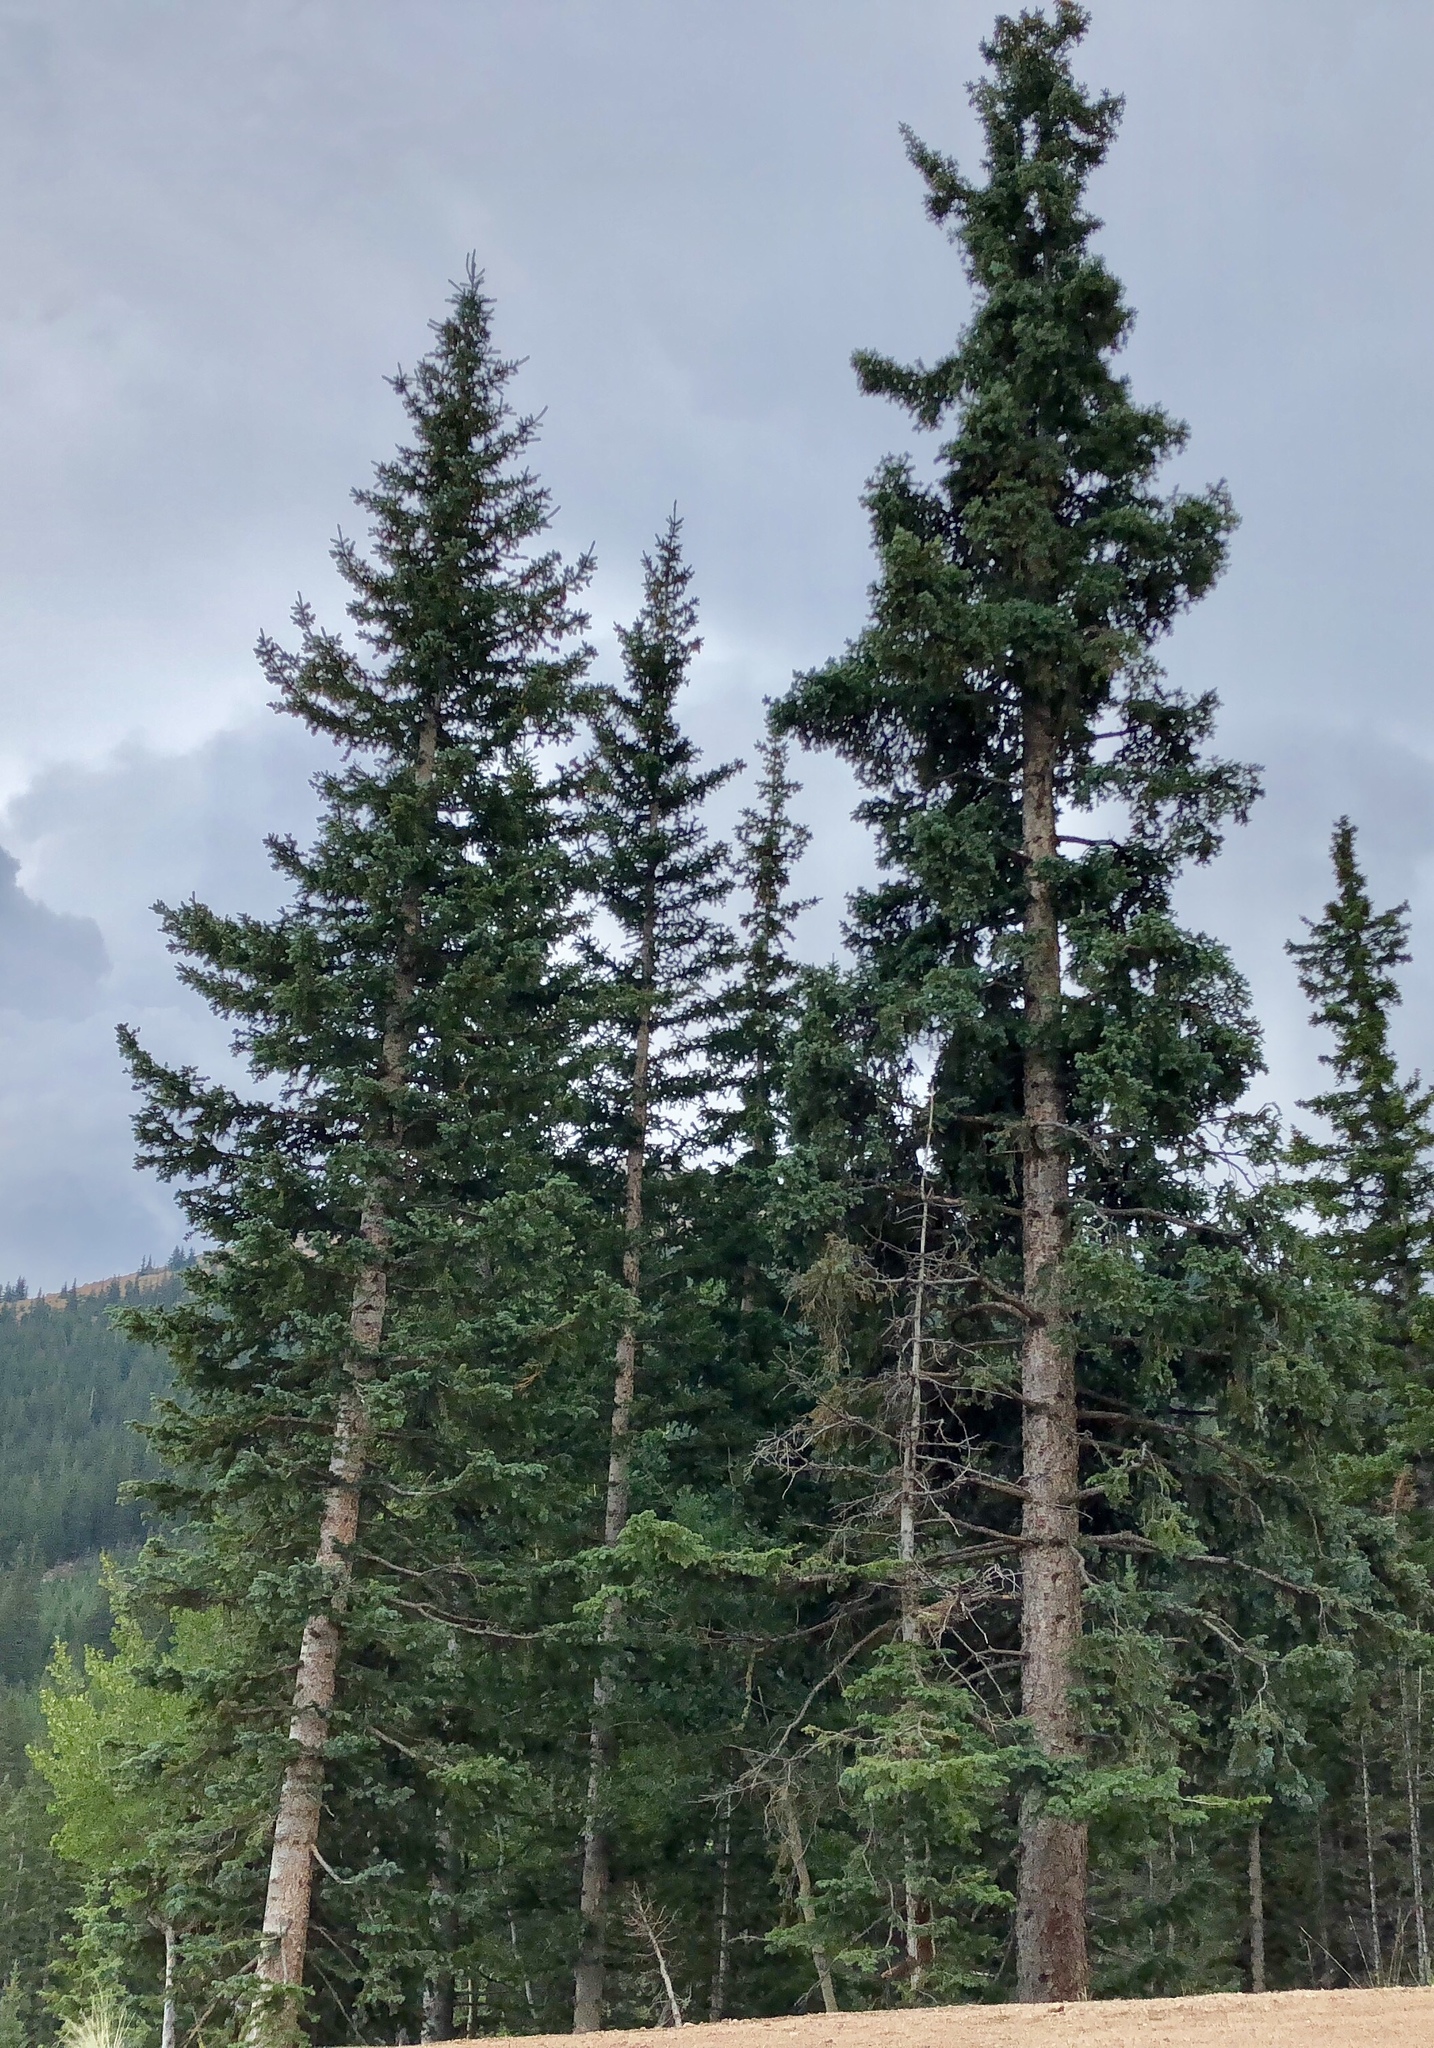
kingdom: Plantae
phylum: Tracheophyta
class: Pinopsida
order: Pinales
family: Pinaceae
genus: Picea
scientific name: Picea engelmannii
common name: Engelmann spruce
